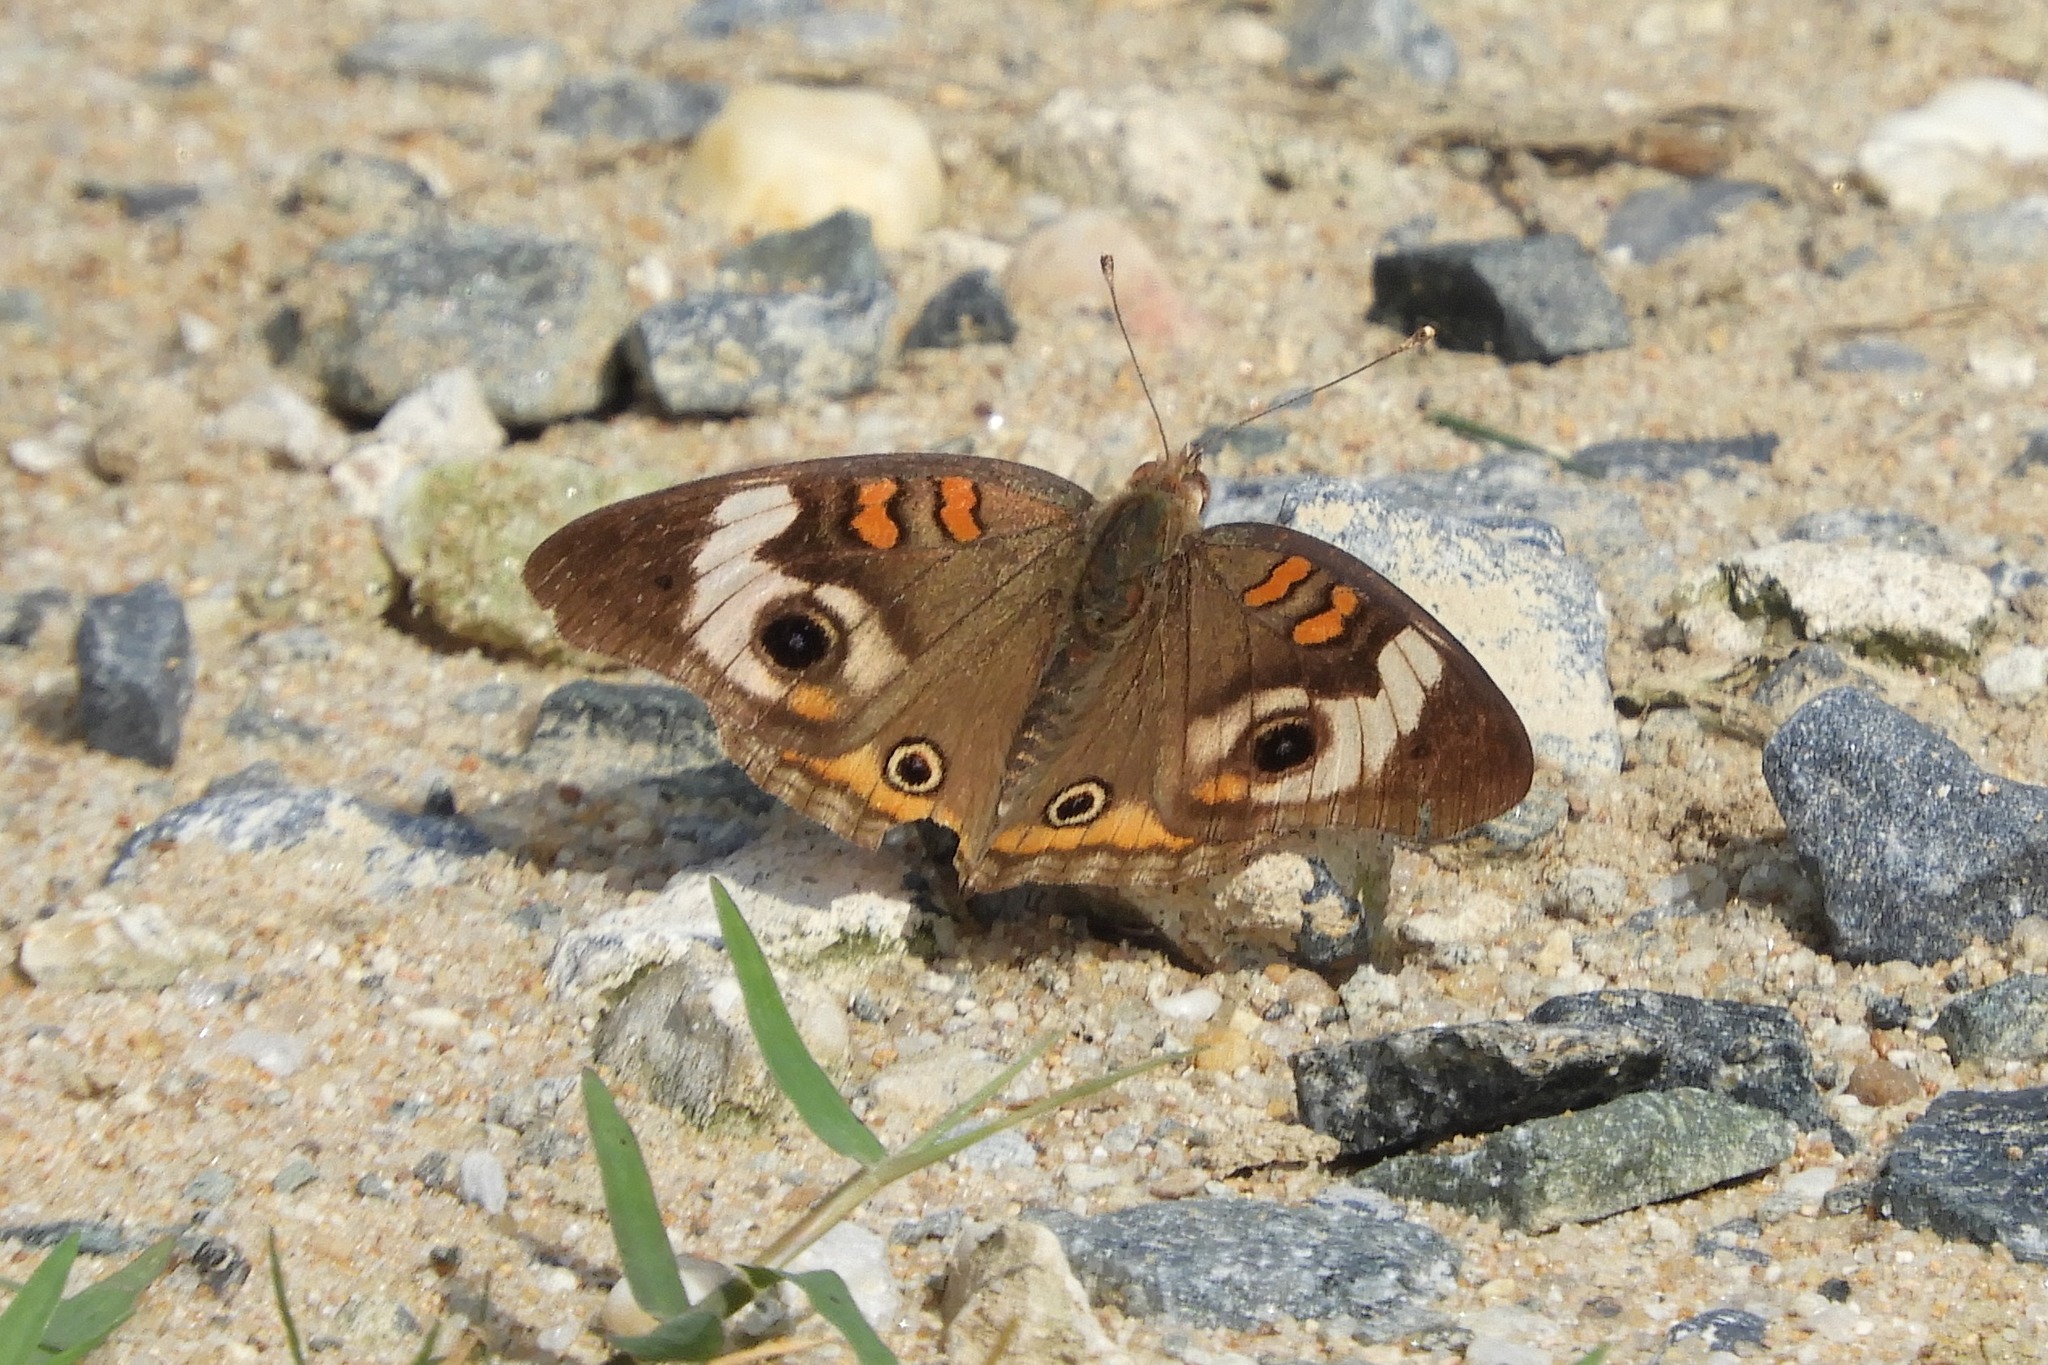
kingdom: Animalia
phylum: Arthropoda
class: Insecta
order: Lepidoptera
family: Nymphalidae
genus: Junonia
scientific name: Junonia coenia
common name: Common buckeye
